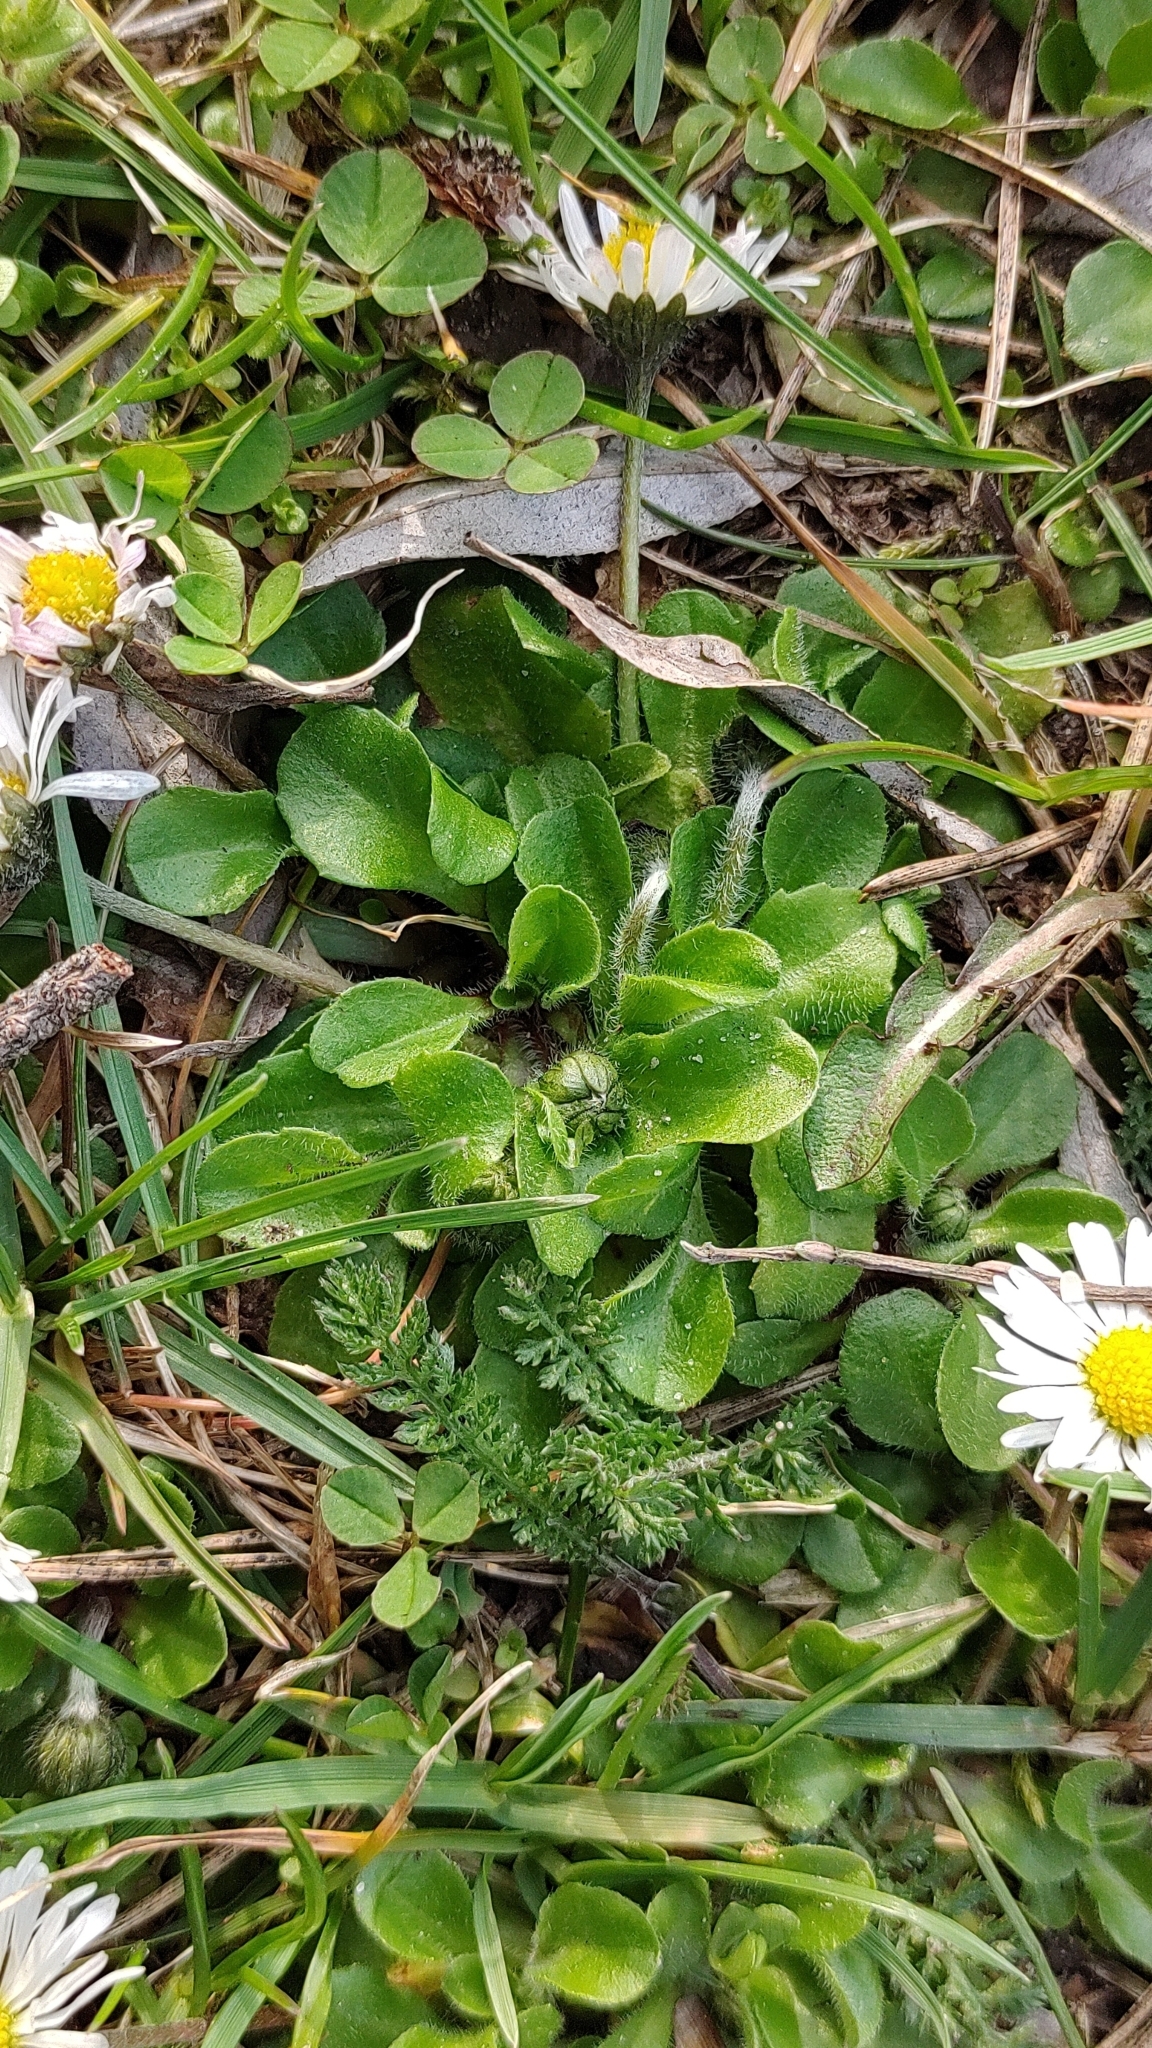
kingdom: Plantae
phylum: Tracheophyta
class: Magnoliopsida
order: Asterales
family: Asteraceae
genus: Bellis
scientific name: Bellis perennis
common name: Lawndaisy
